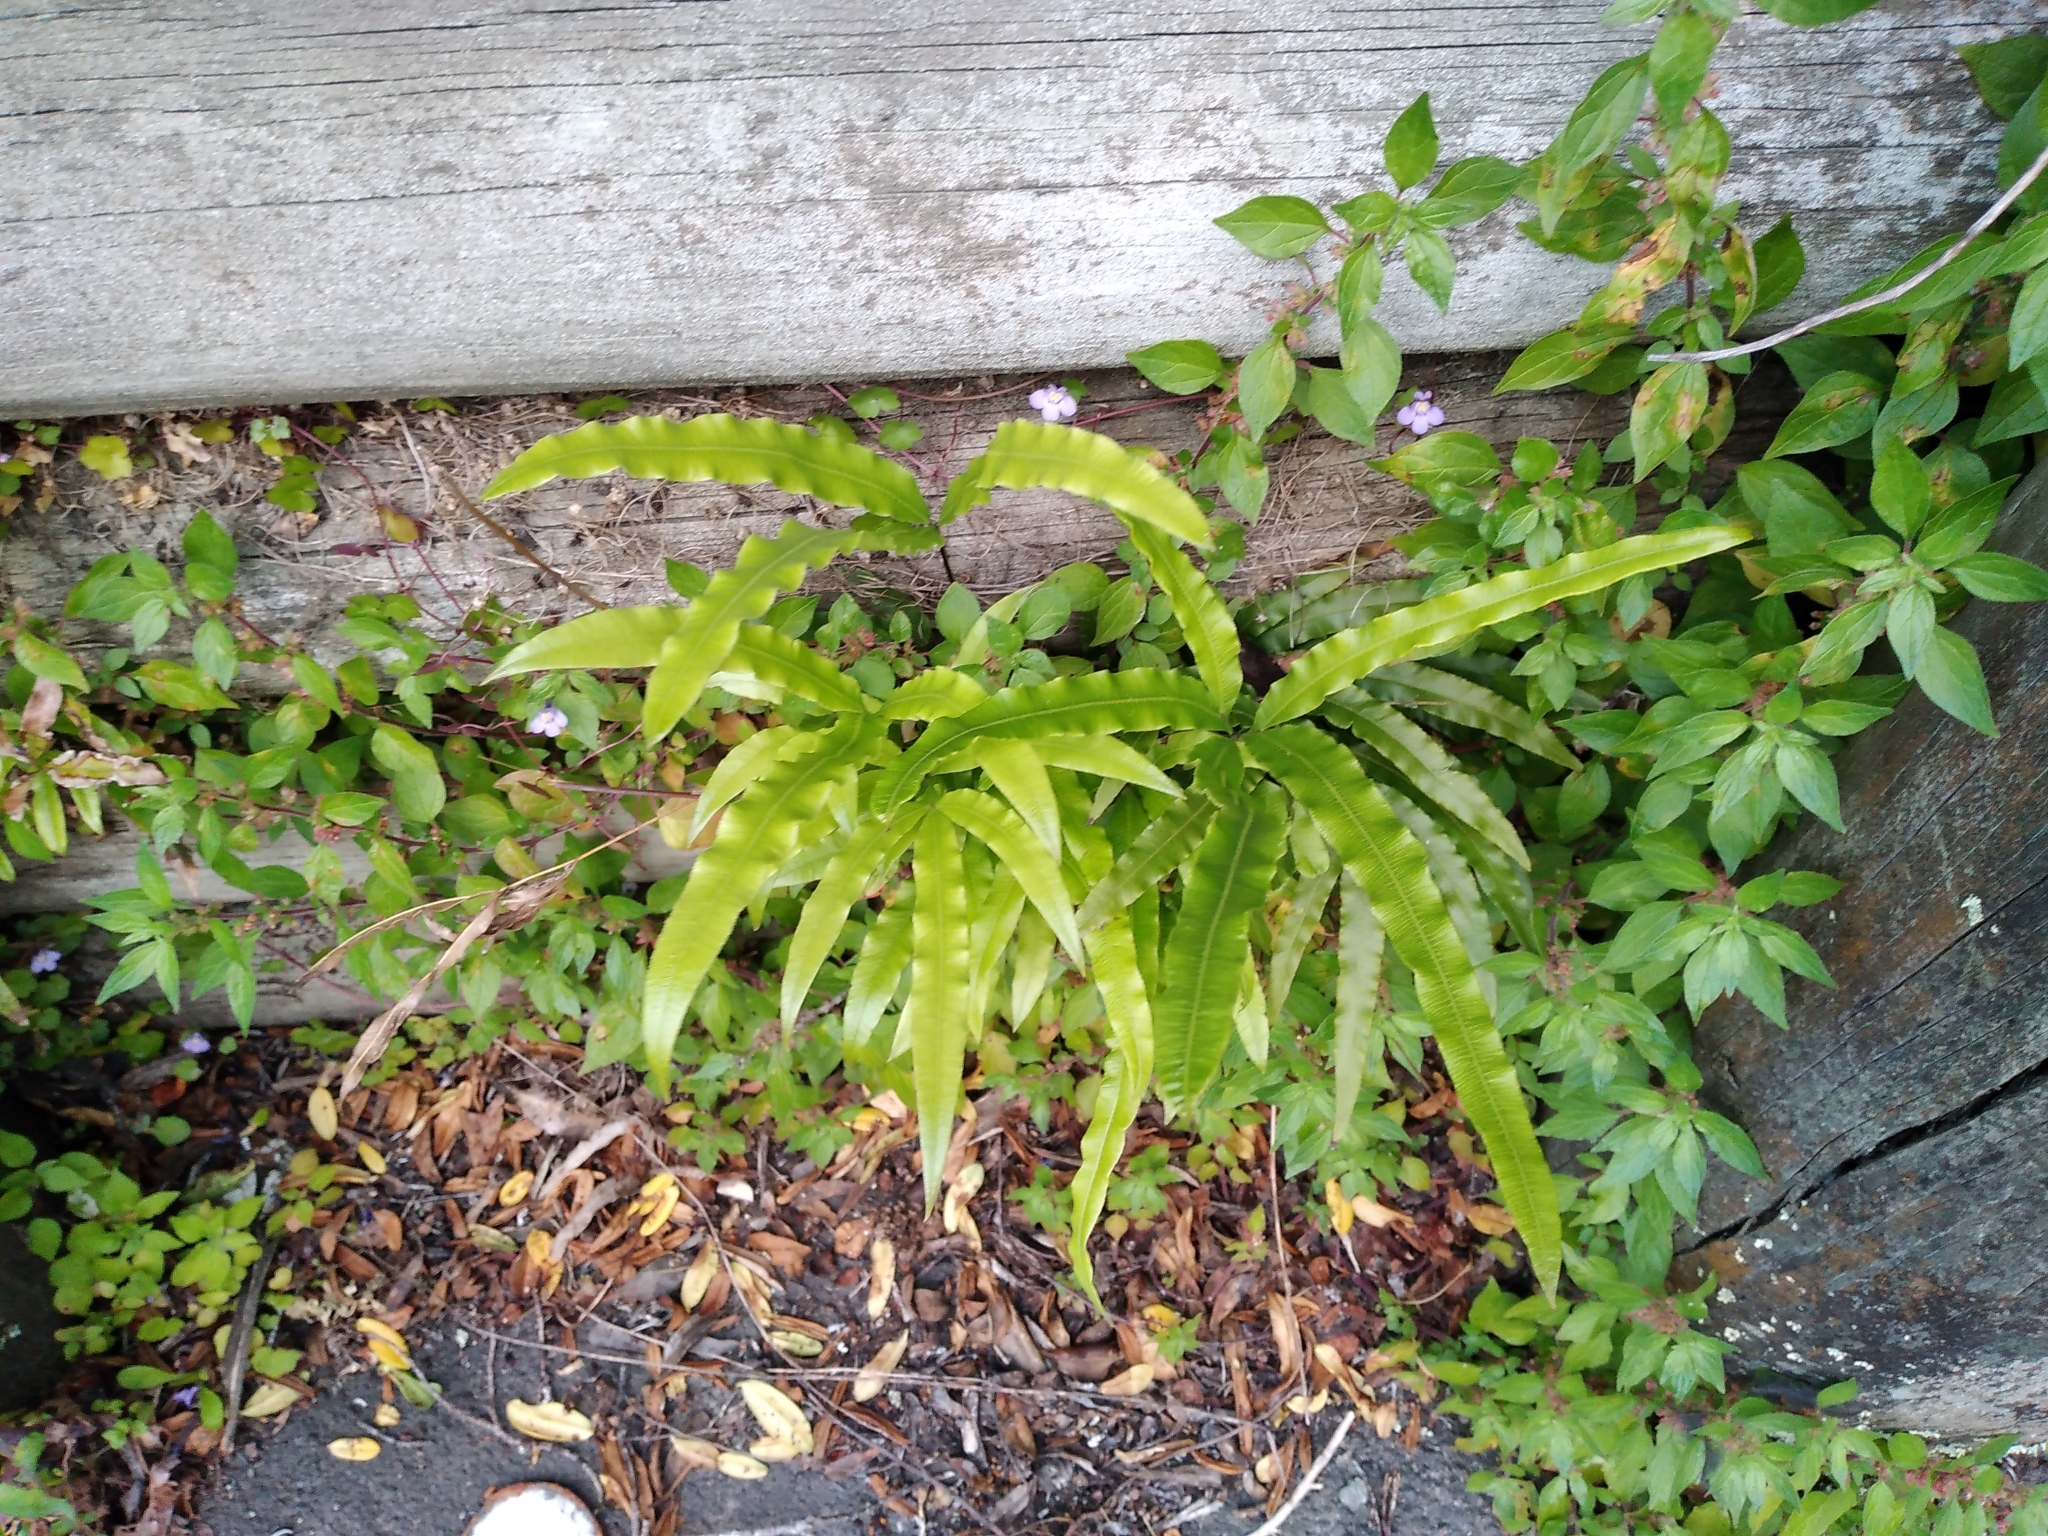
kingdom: Plantae
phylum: Tracheophyta
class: Polypodiopsida
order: Polypodiales
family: Pteridaceae
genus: Pteris
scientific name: Pteris cretica
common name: Ribbon fern
